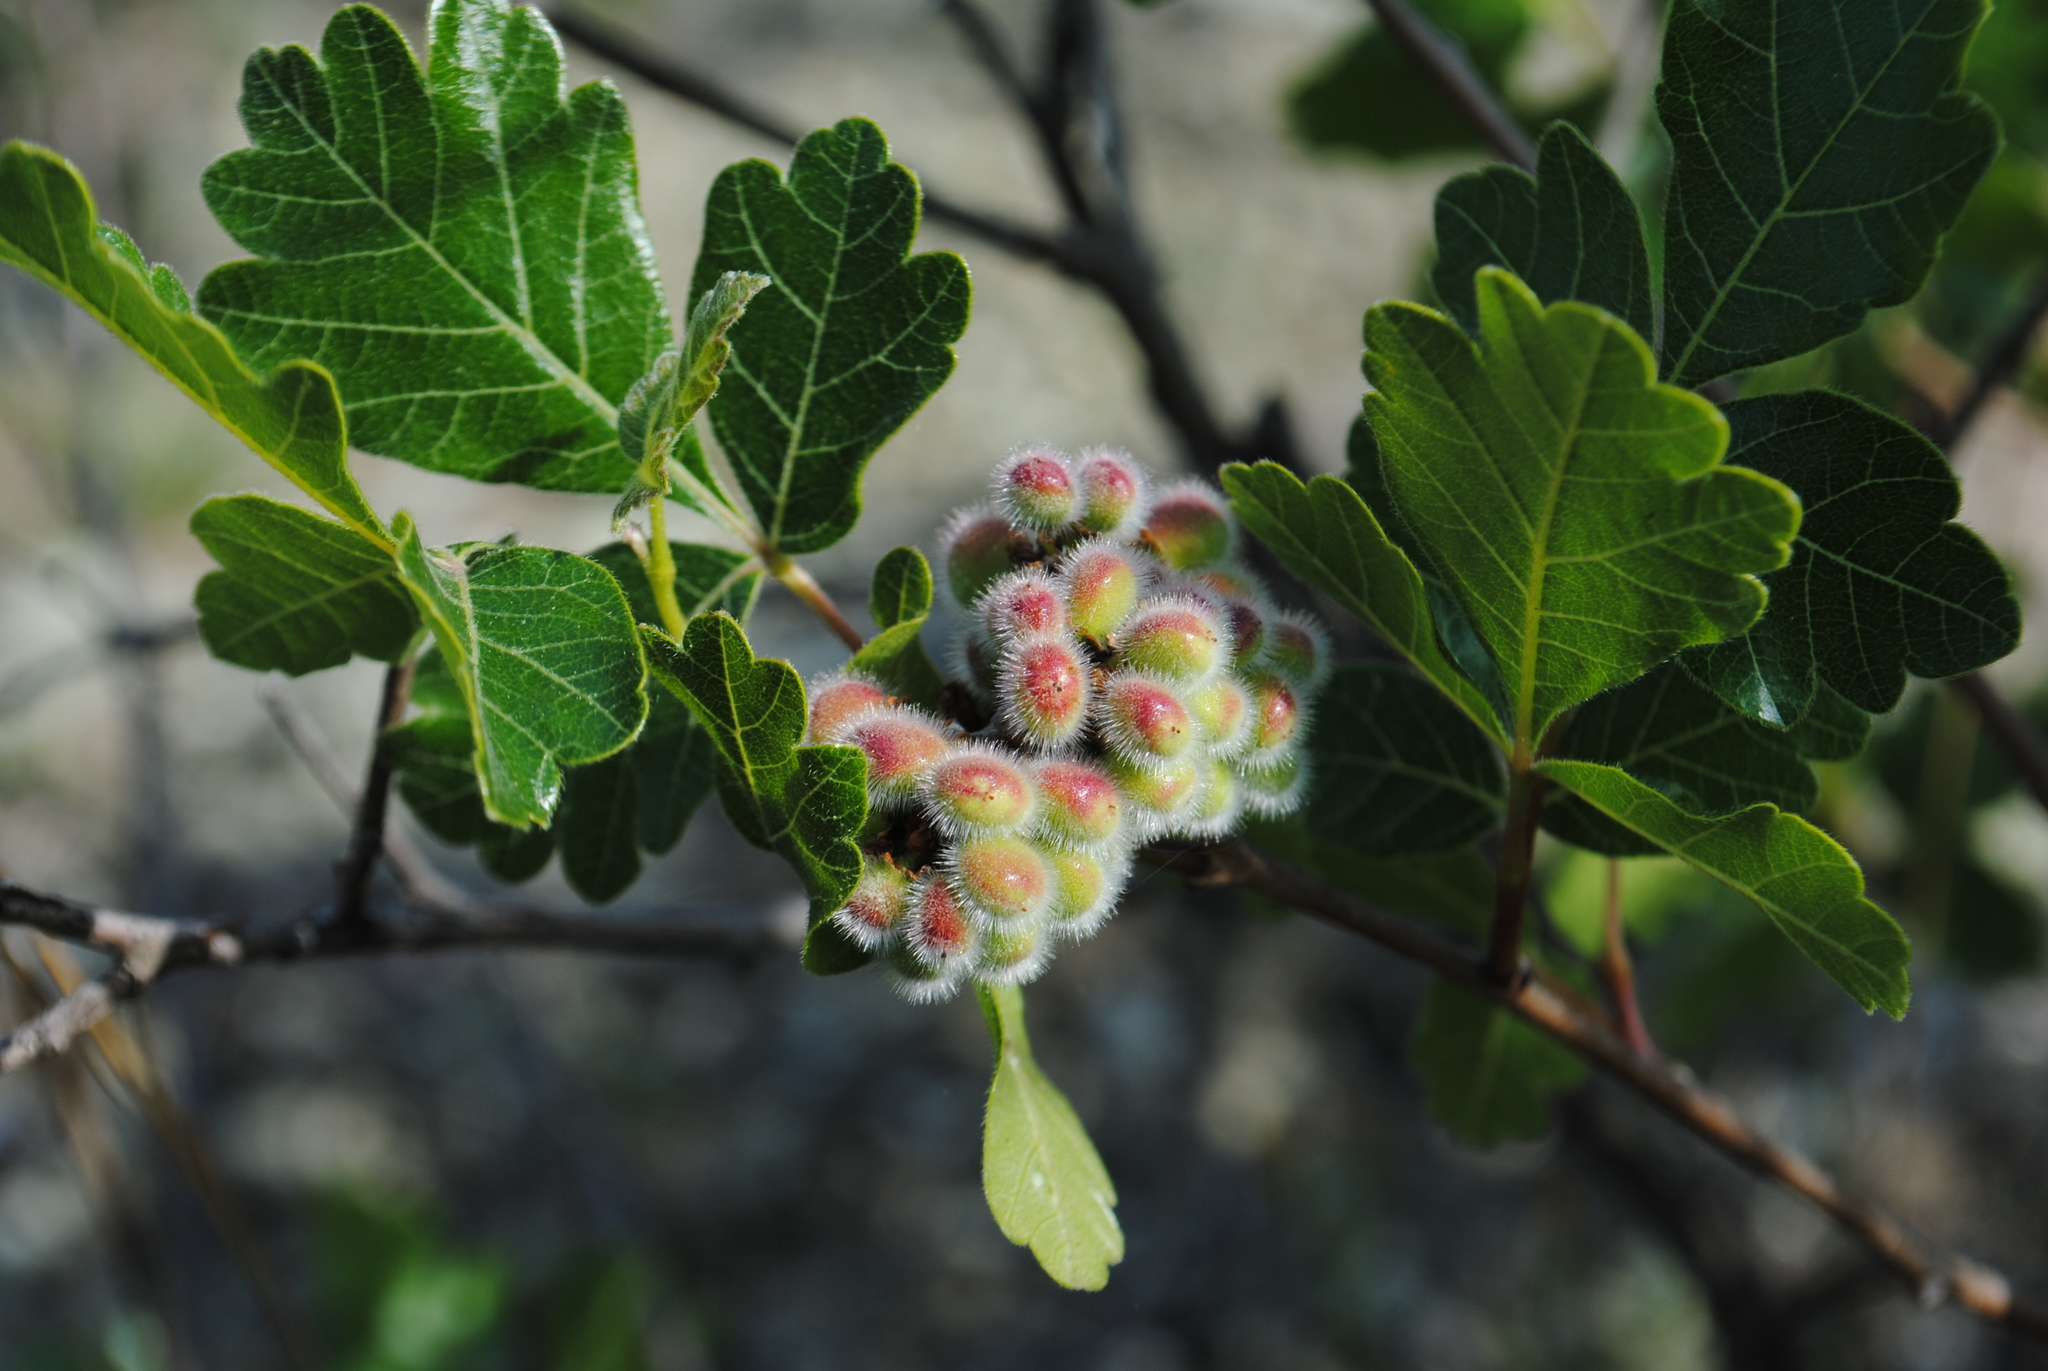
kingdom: Plantae
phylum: Tracheophyta
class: Magnoliopsida
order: Sapindales
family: Anacardiaceae
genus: Rhus
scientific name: Rhus aromatica
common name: Aromatic sumac
